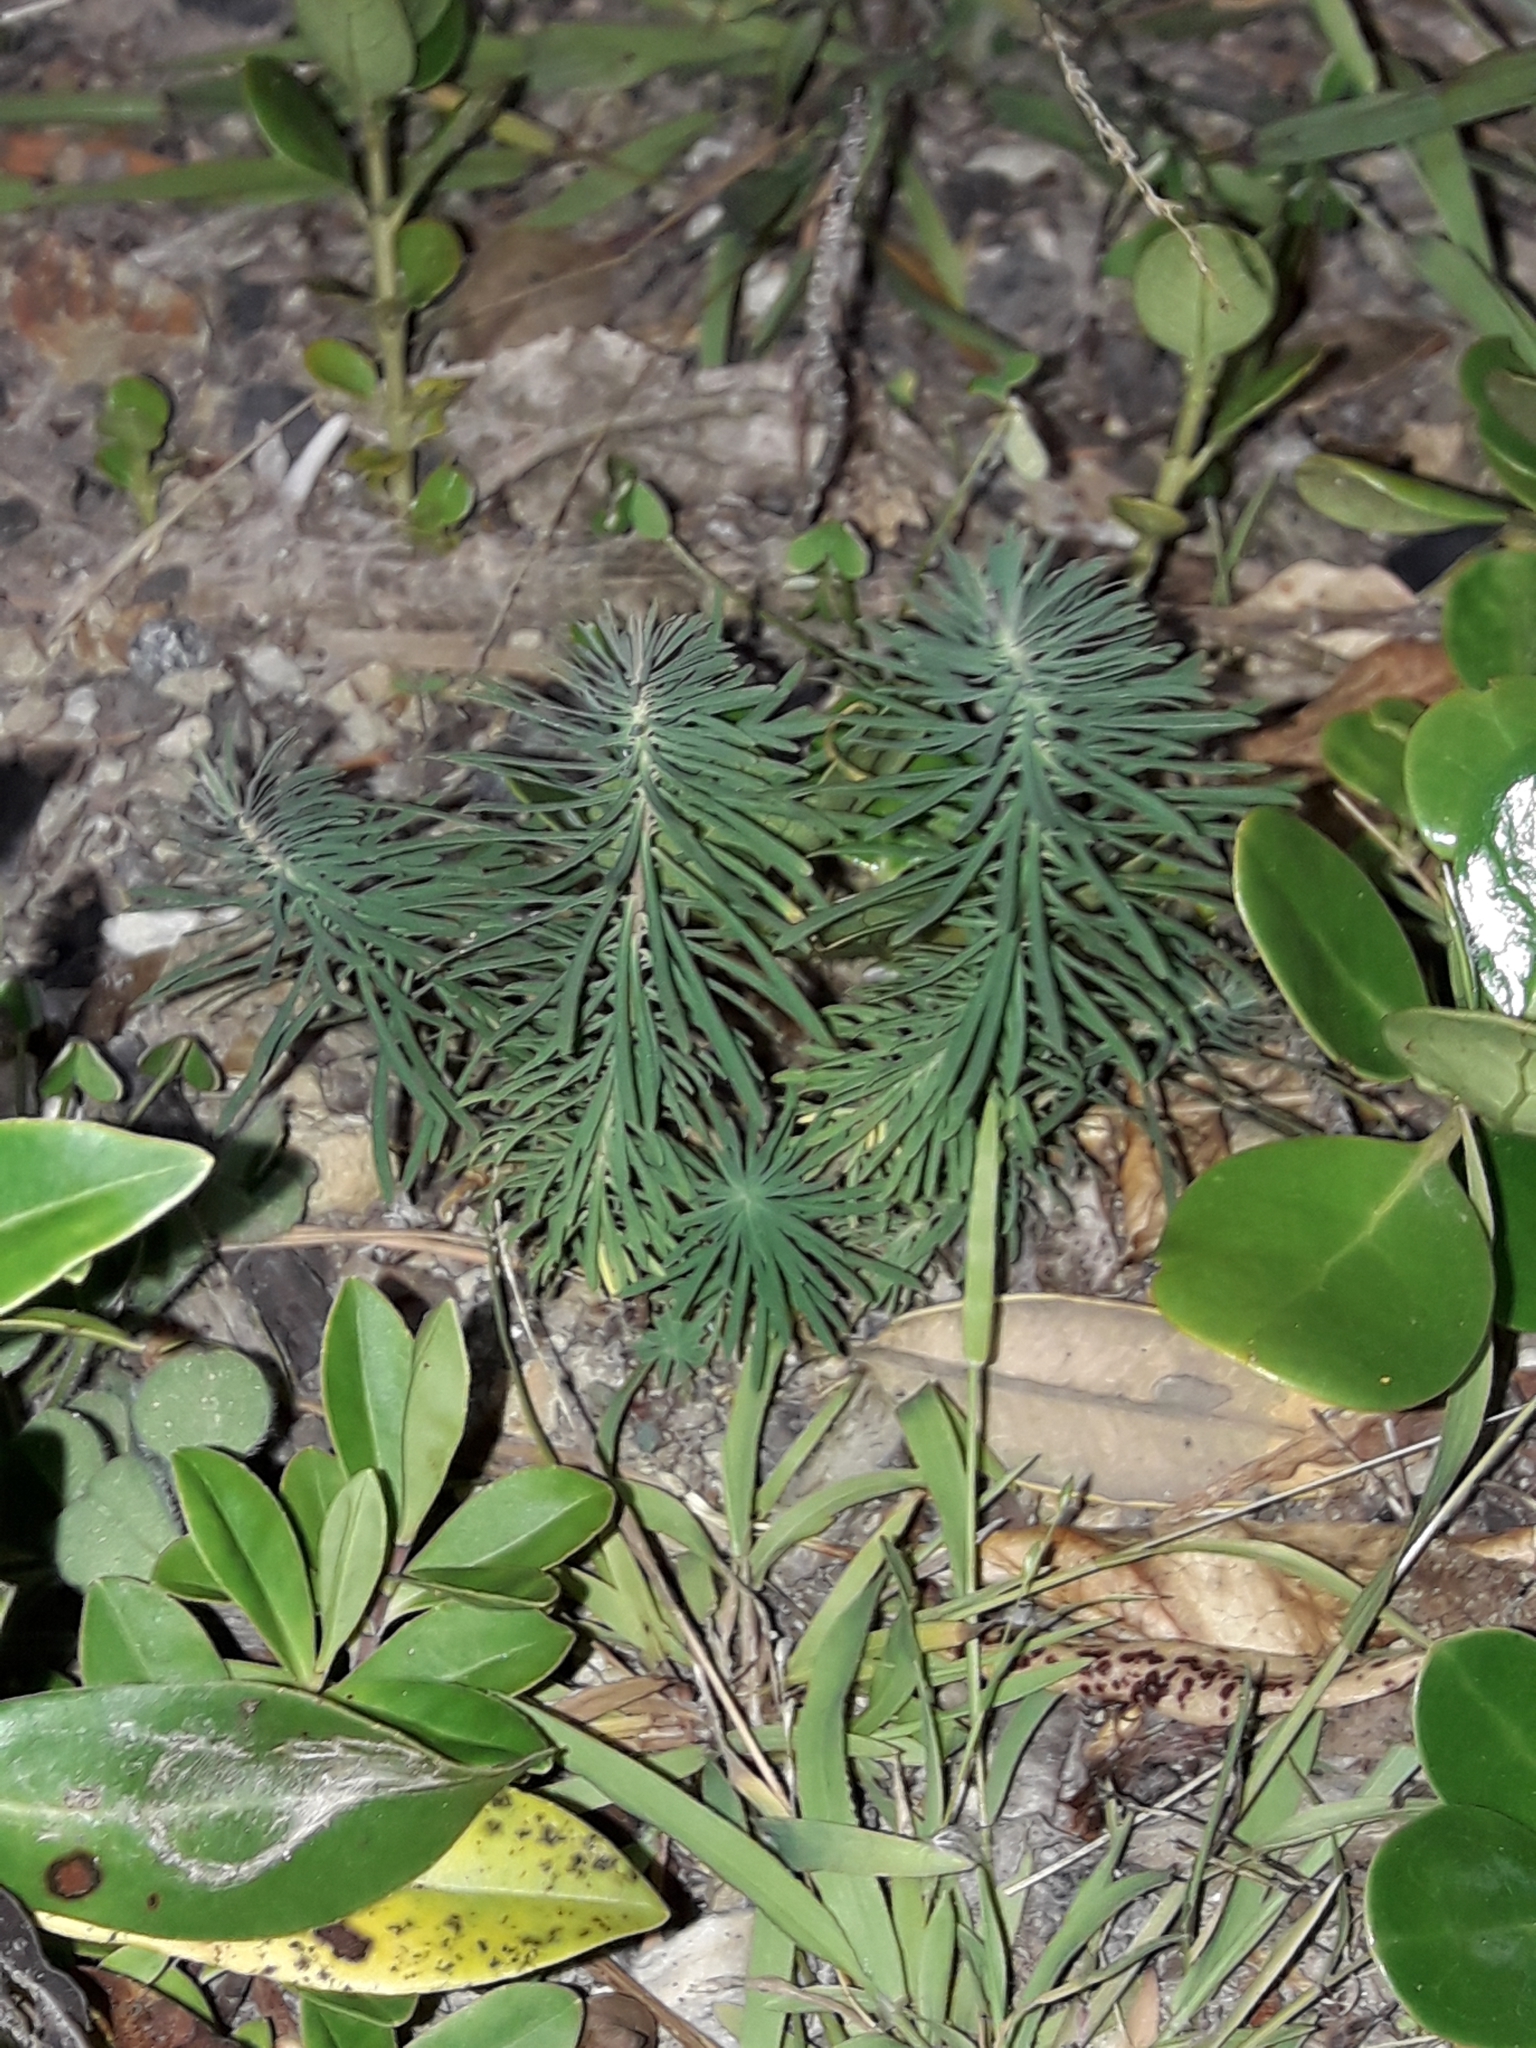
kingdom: Plantae
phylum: Tracheophyta
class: Magnoliopsida
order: Malpighiales
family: Euphorbiaceae
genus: Euphorbia
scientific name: Euphorbia characias
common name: Mediterranean spurge
